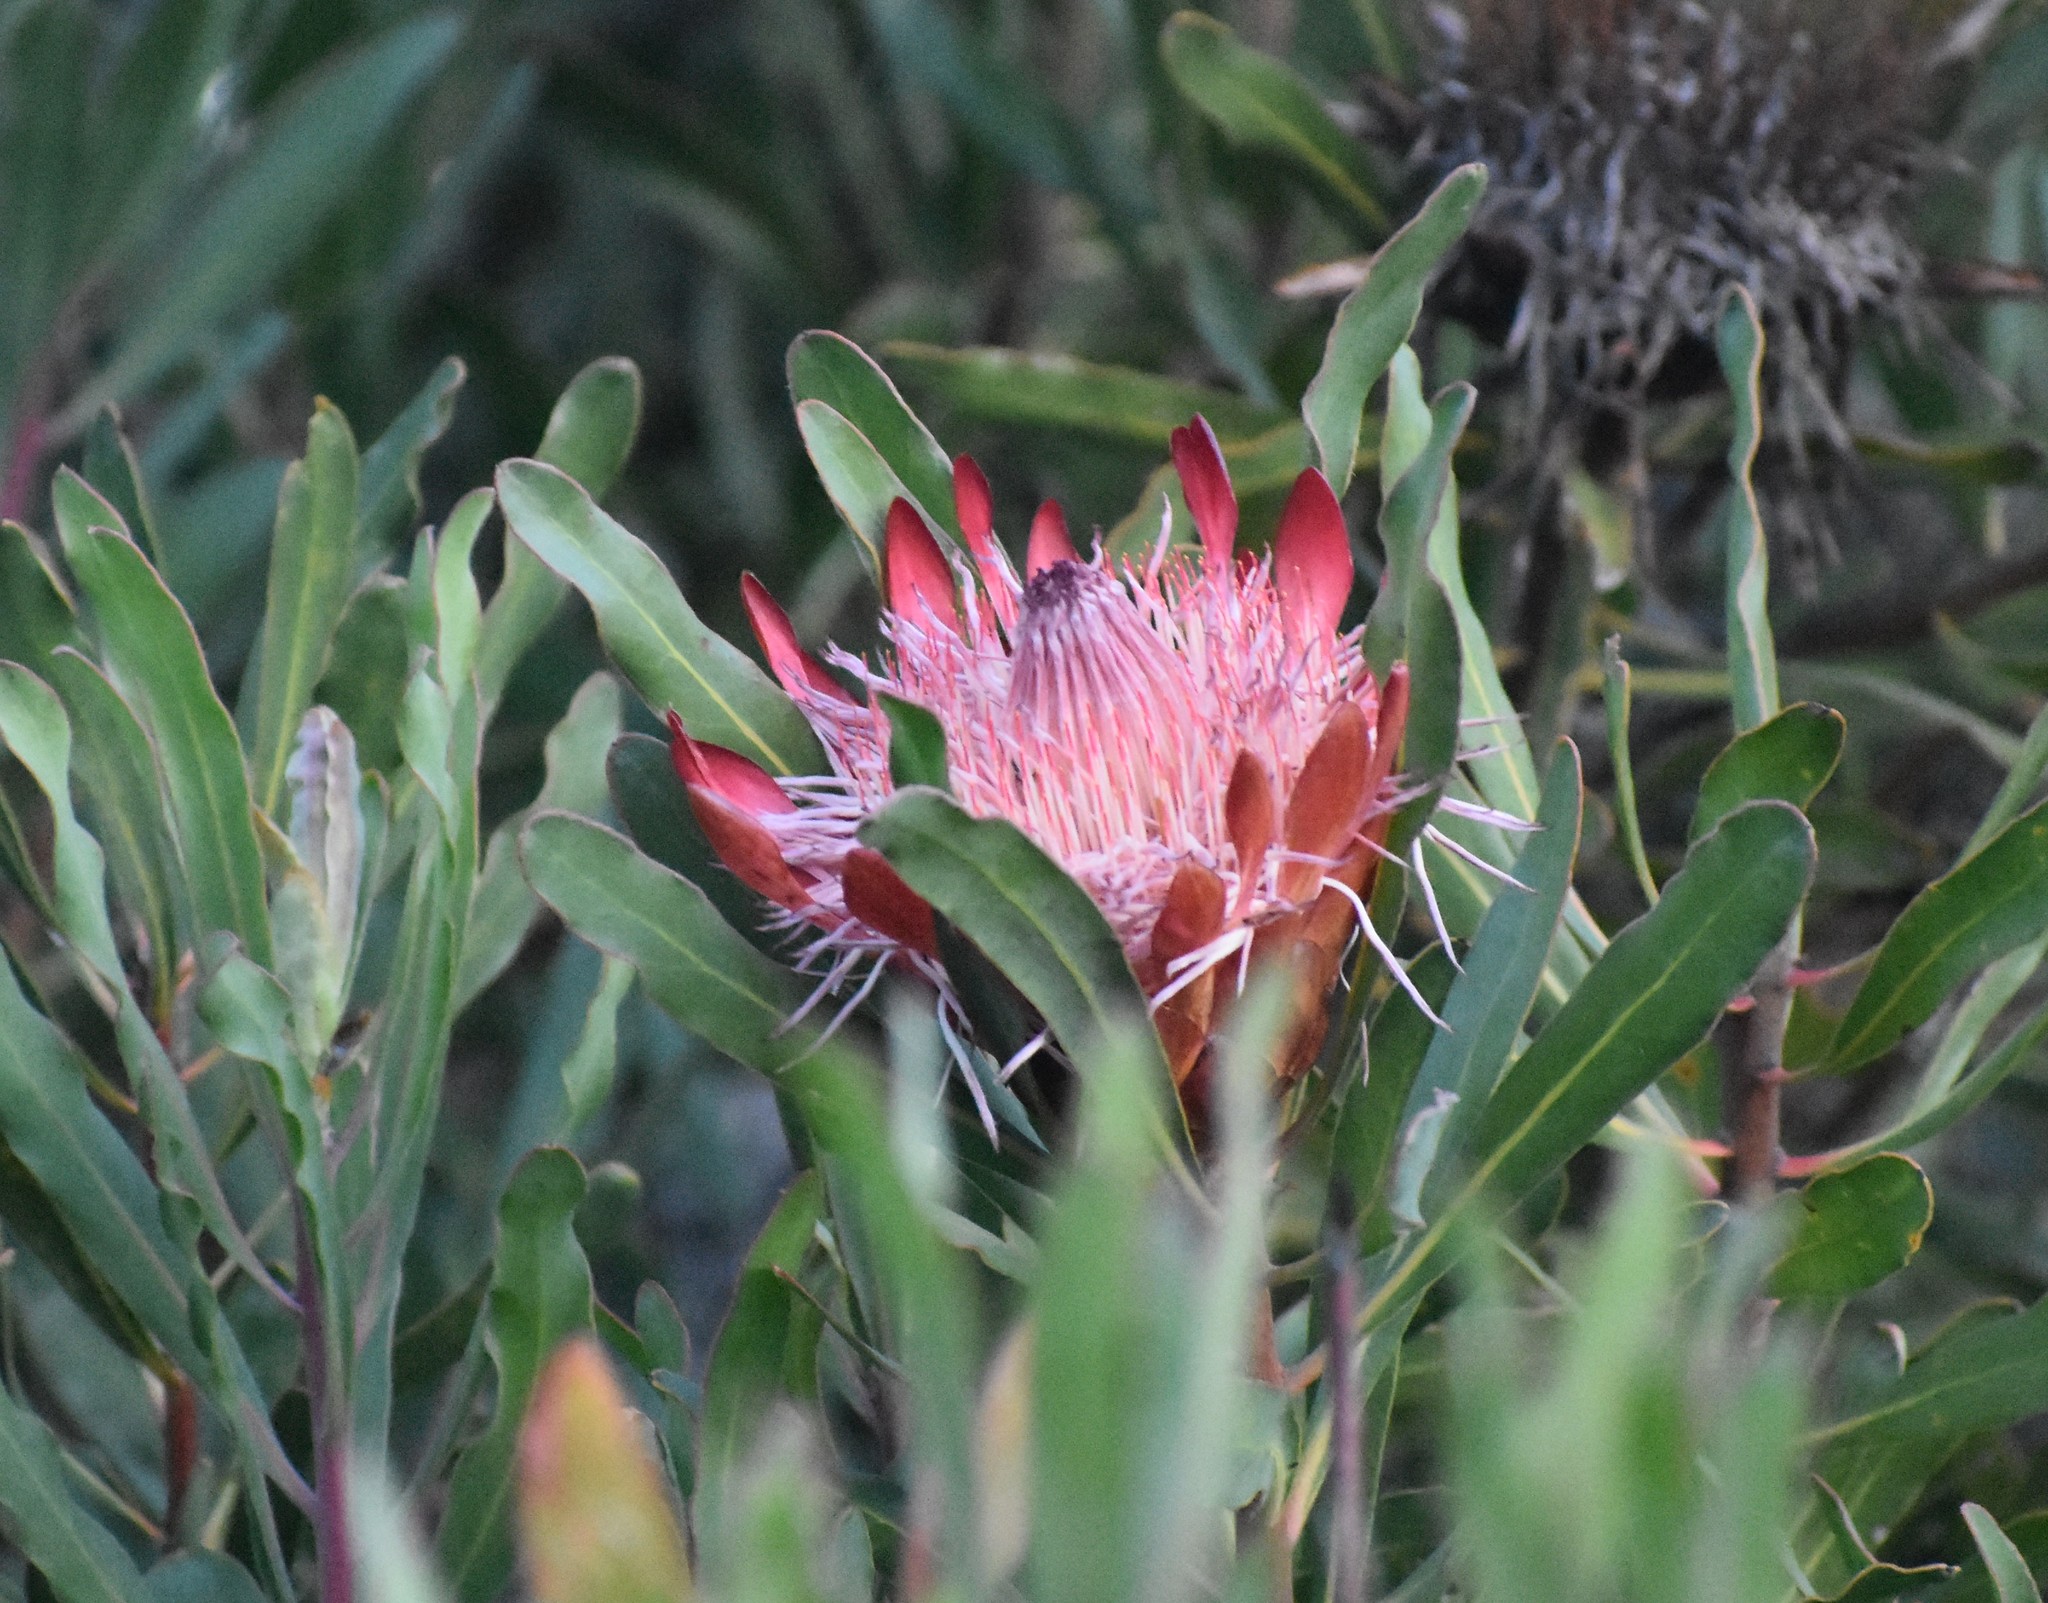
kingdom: Plantae
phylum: Tracheophyta
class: Magnoliopsida
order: Proteales
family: Proteaceae
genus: Protea
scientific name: Protea susannae
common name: Foetid-leaf sugarbush
